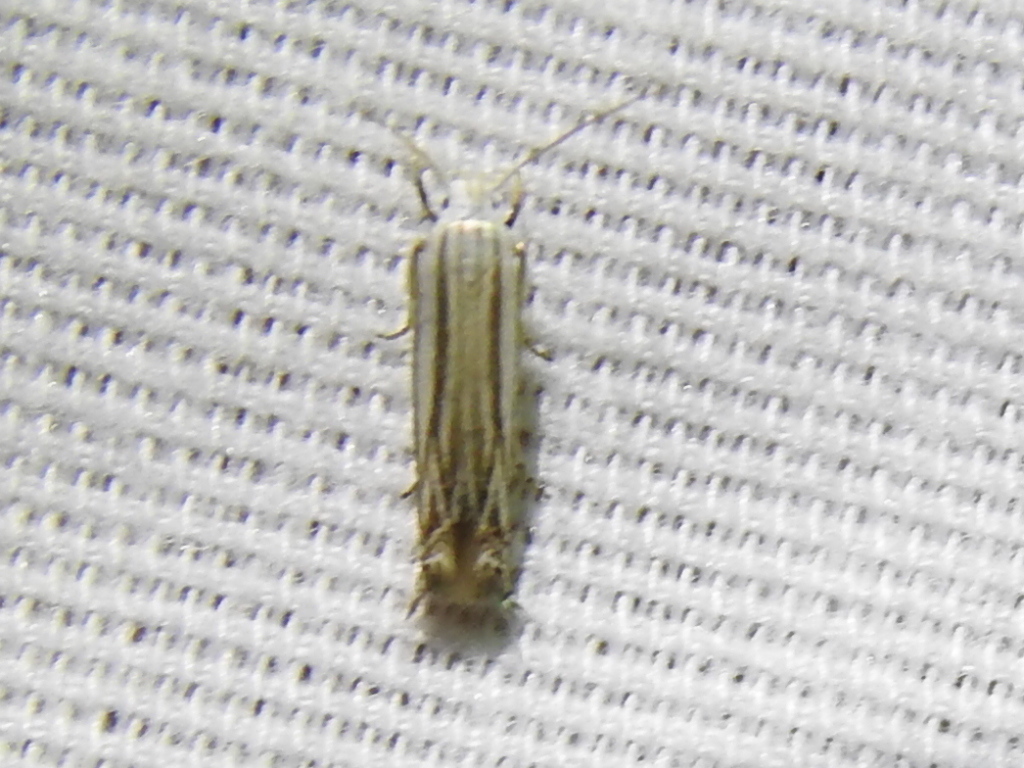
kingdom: Animalia
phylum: Arthropoda
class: Insecta
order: Lepidoptera
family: Gelechiidae
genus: Polyhymno
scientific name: Polyhymno luteostrigella
